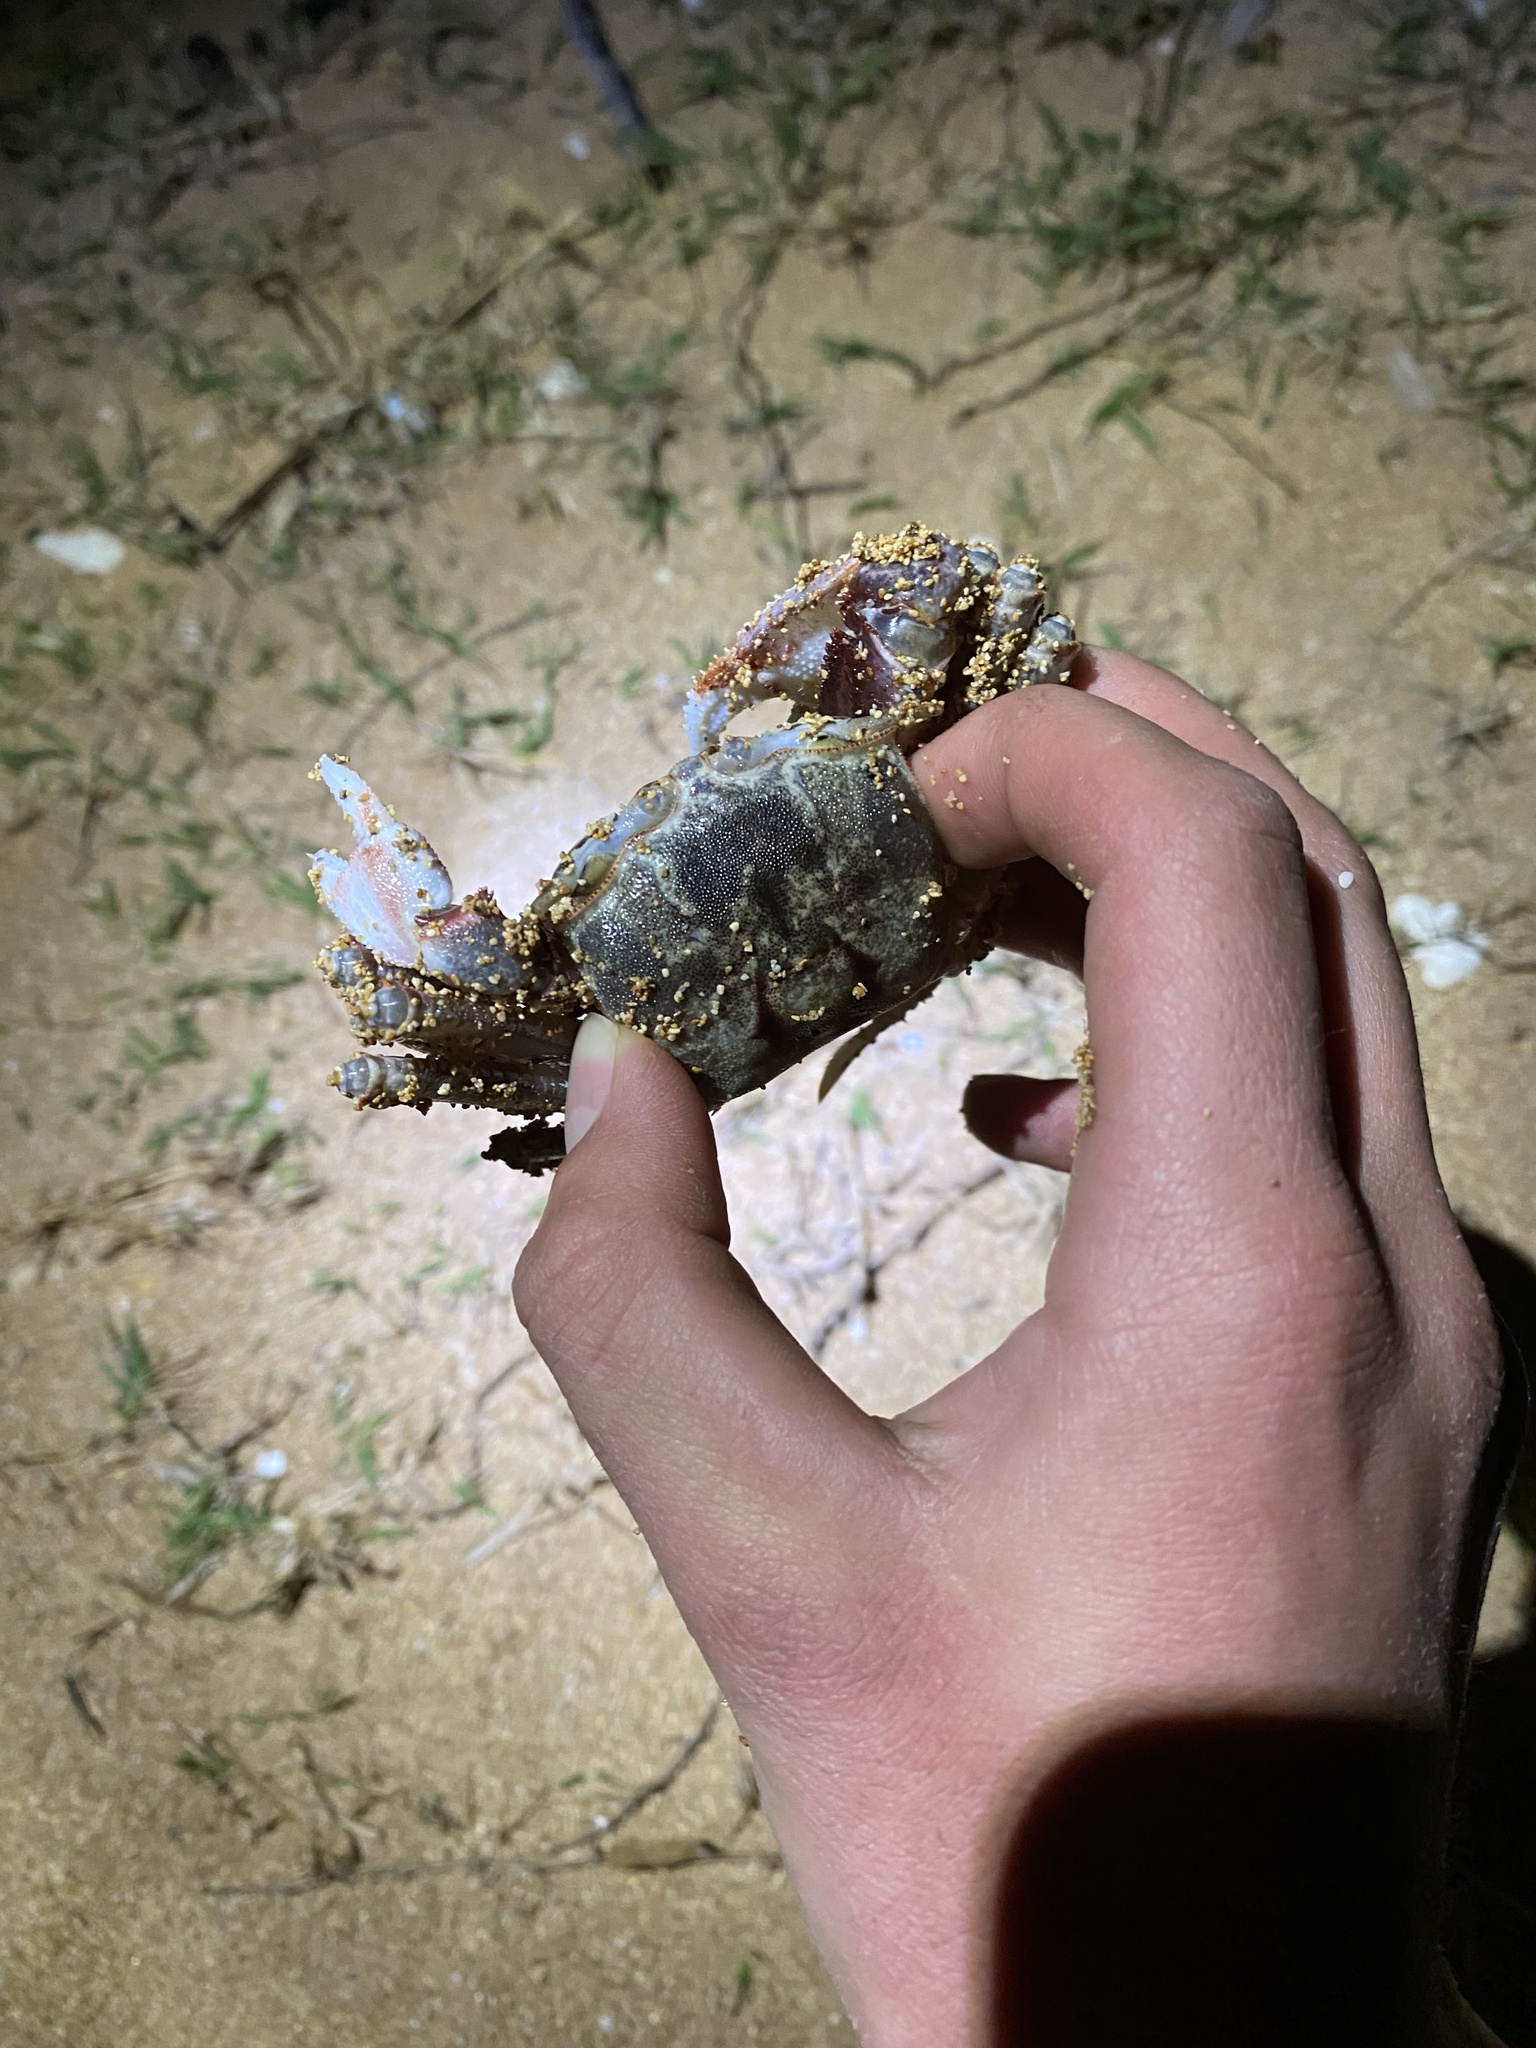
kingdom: Animalia
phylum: Arthropoda
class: Malacostraca
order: Decapoda
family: Ocypodidae
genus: Ocypode
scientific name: Ocypode ceratophthalmus
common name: Indo-pacific ghost crab
